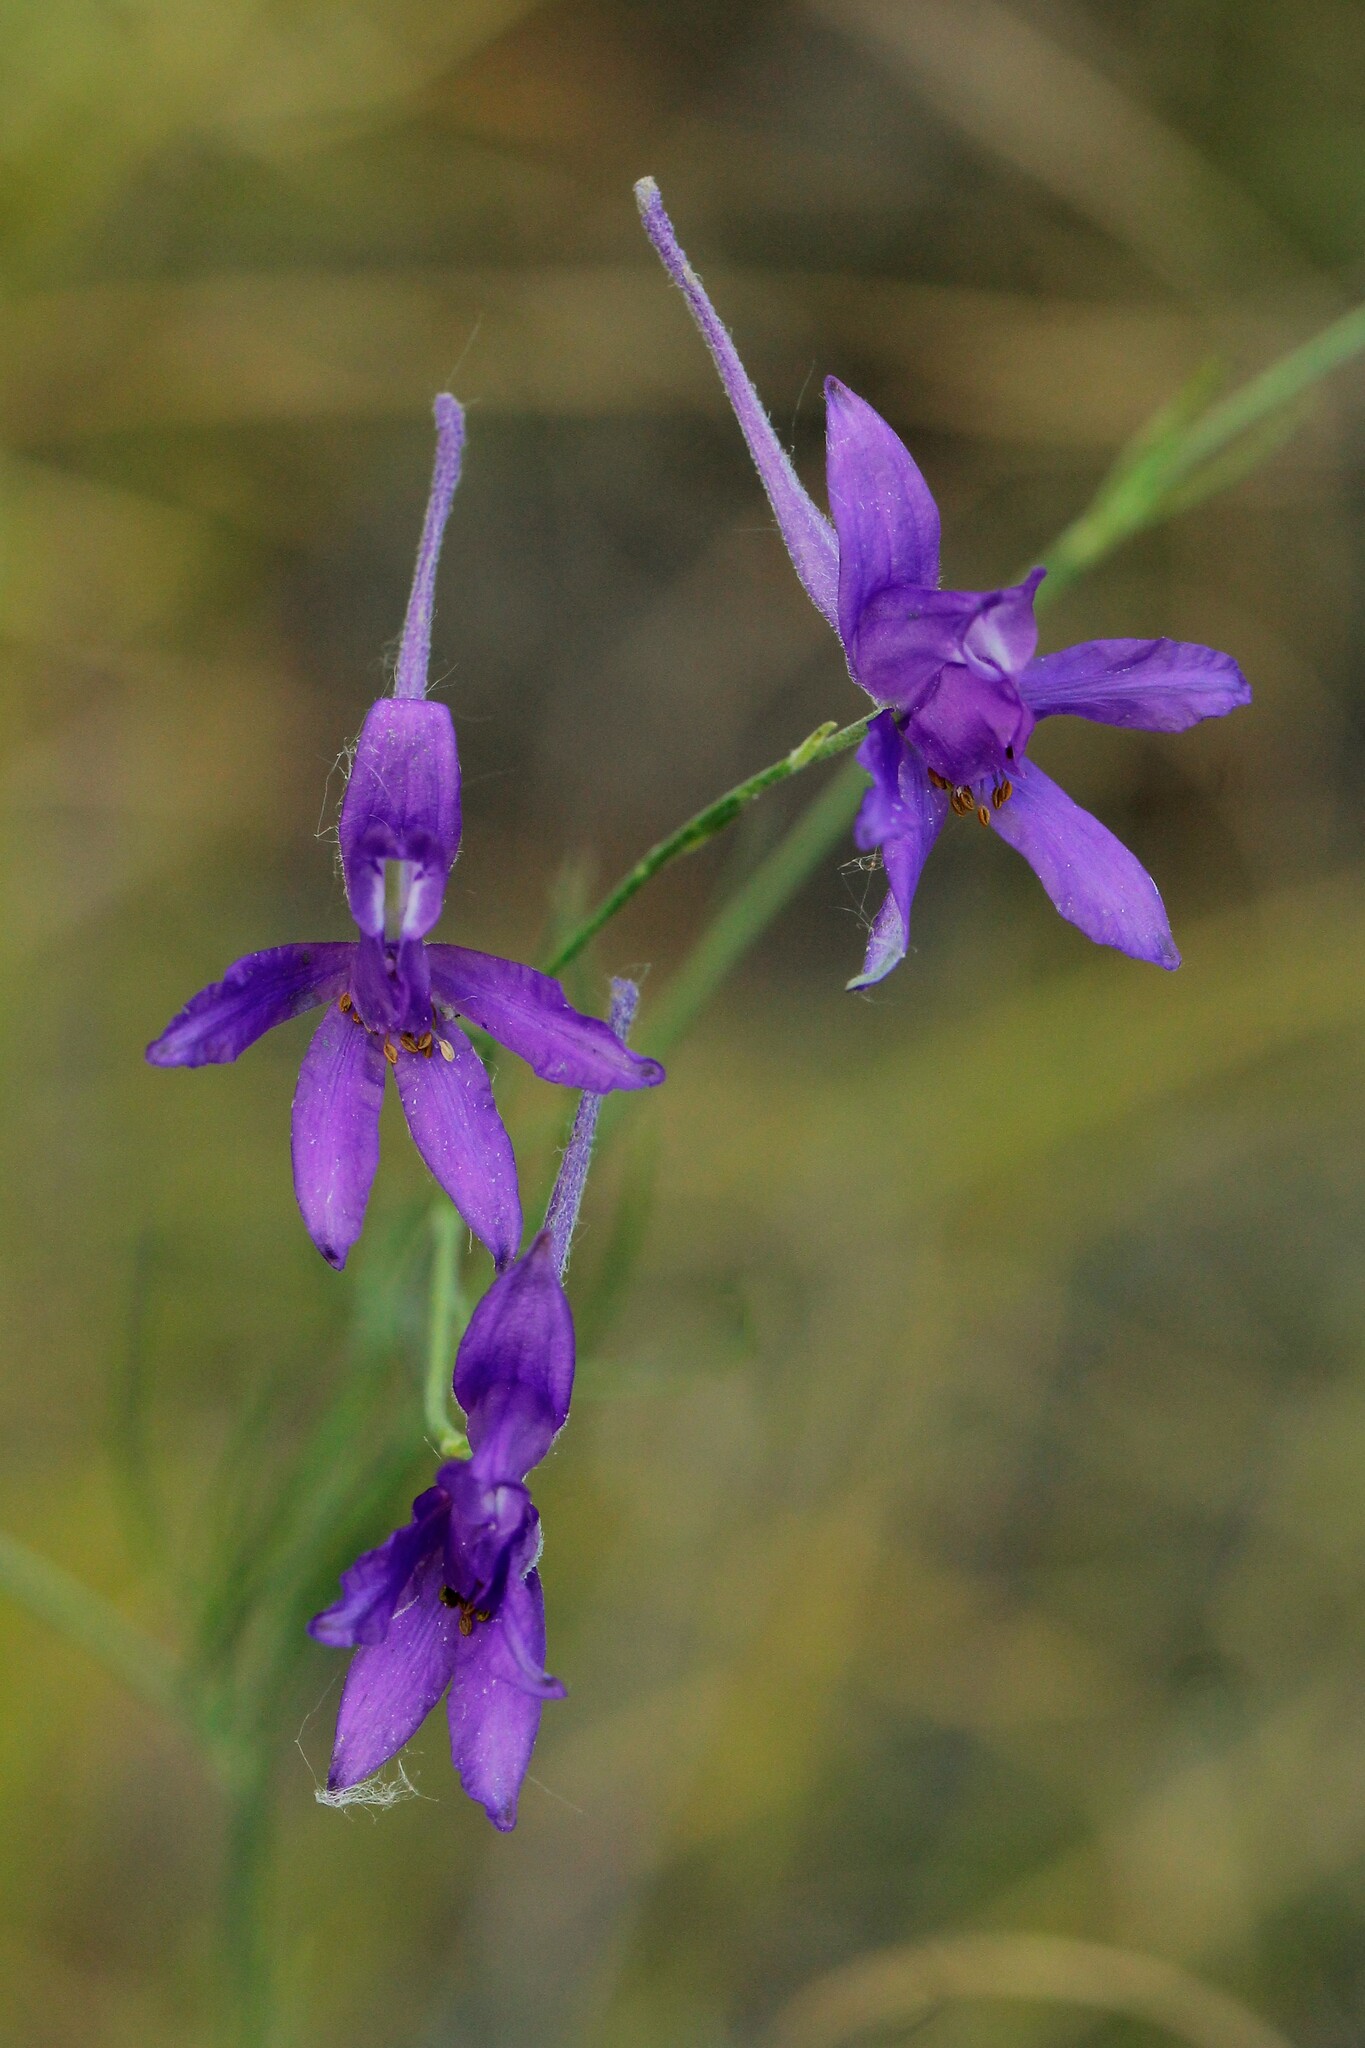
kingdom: Plantae
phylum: Tracheophyta
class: Magnoliopsida
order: Ranunculales
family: Ranunculaceae
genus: Delphinium
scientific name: Delphinium consolida
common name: Branching larkspur
